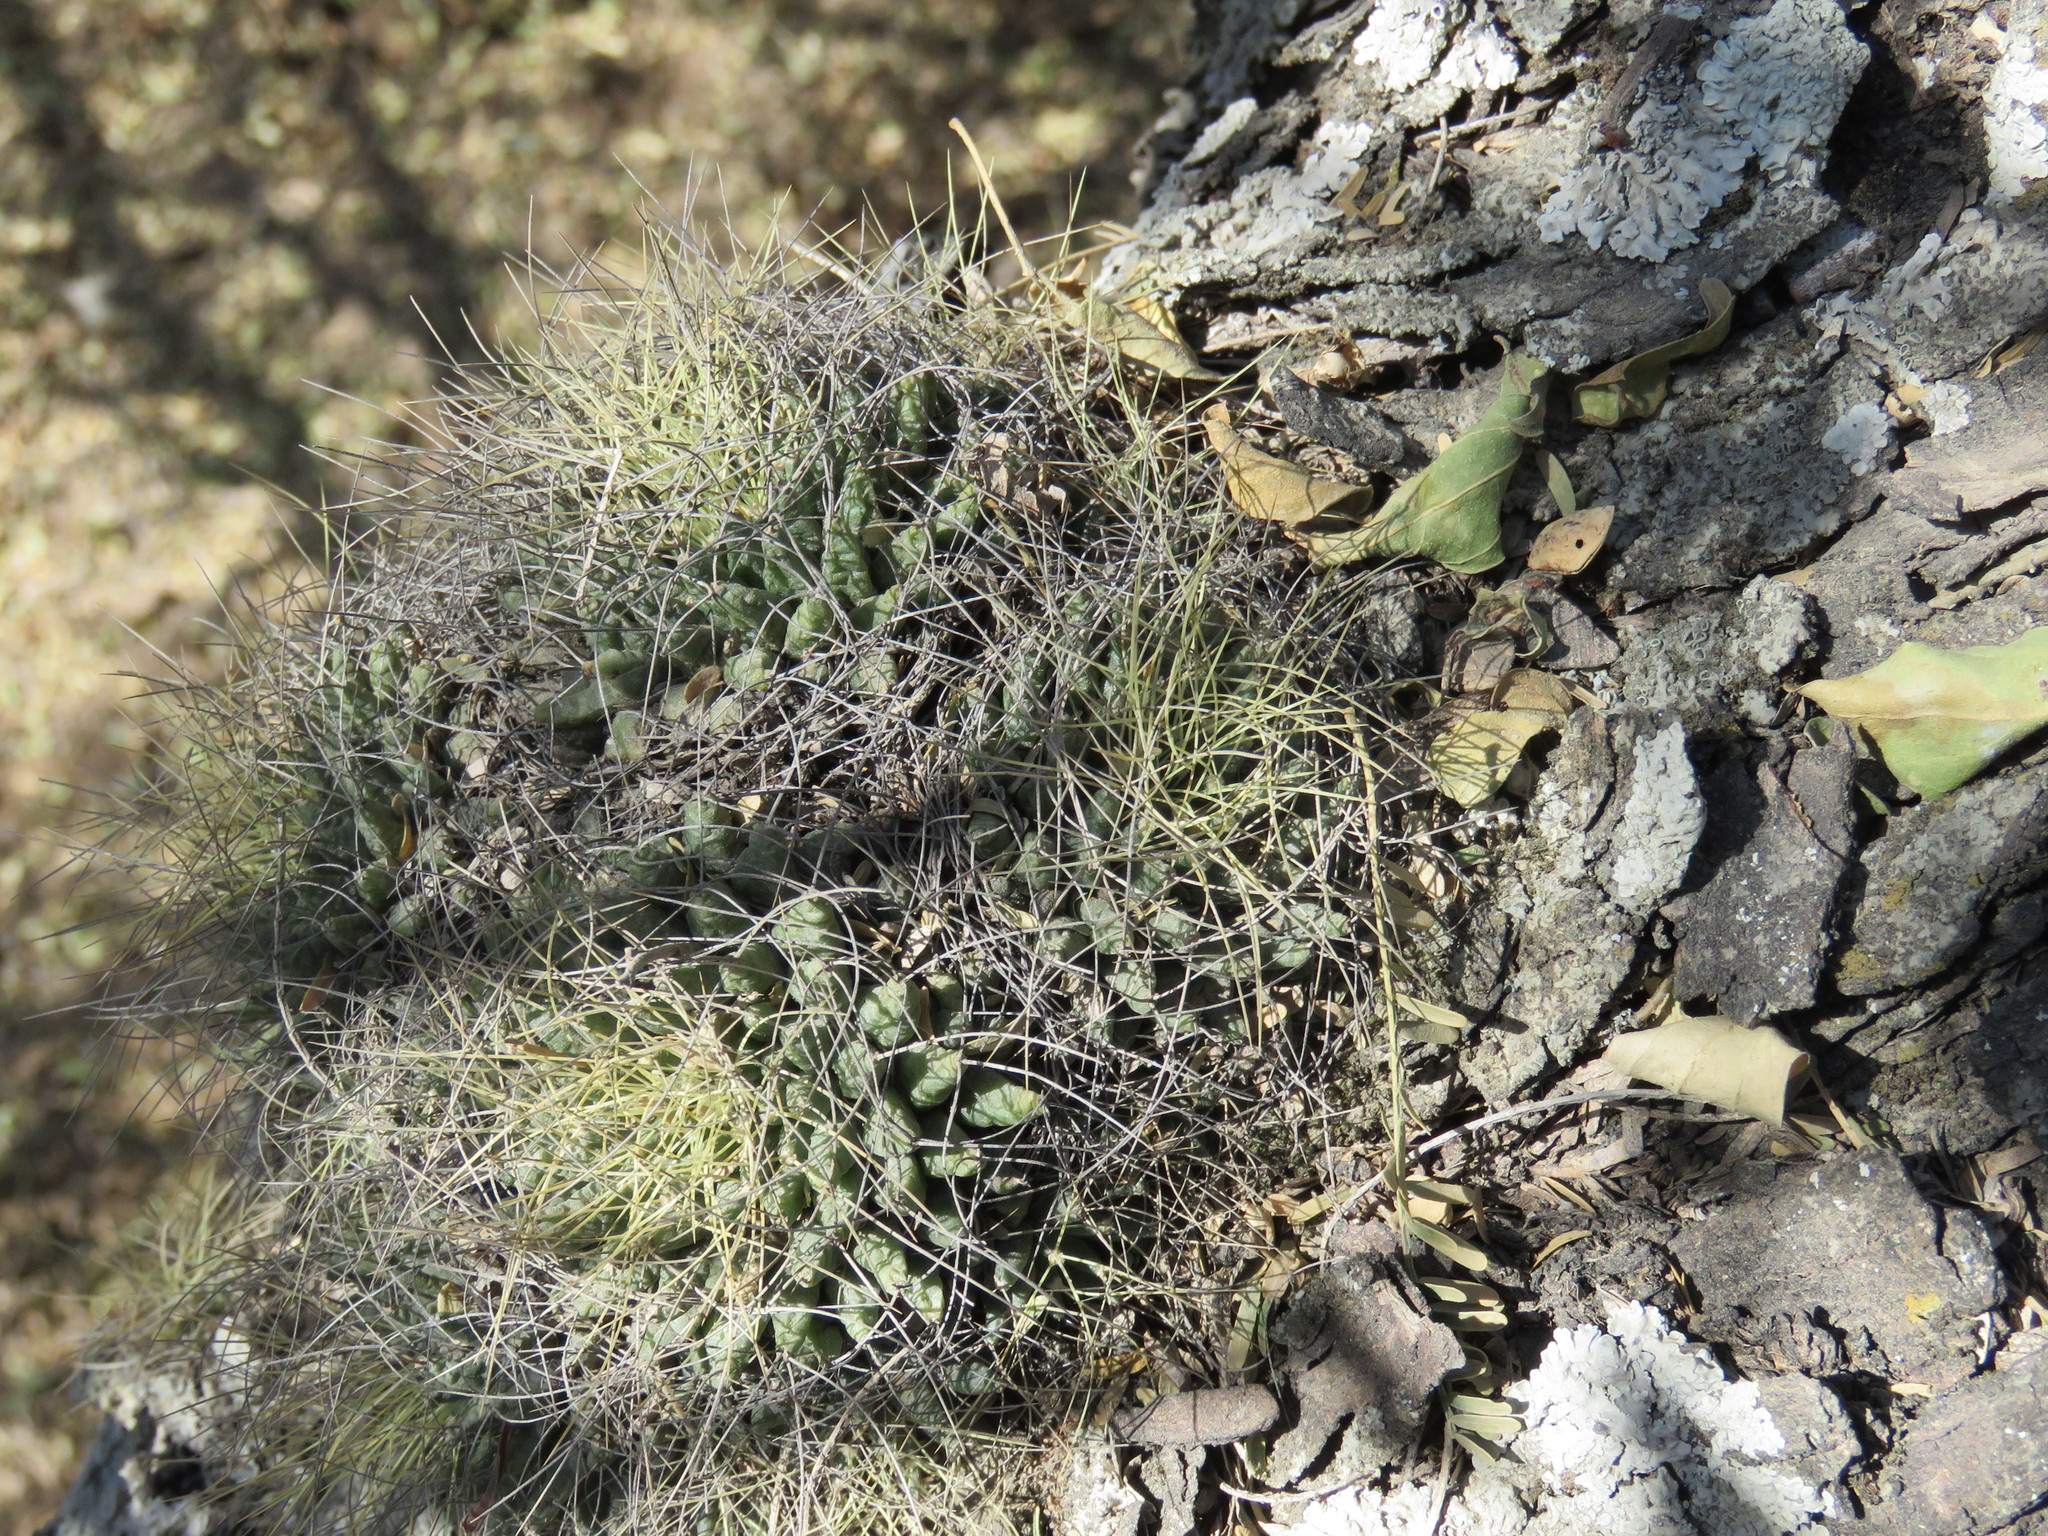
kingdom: Plantae
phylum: Tracheophyta
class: Magnoliopsida
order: Caryophyllales
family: Cactaceae
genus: Mammillaria
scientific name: Mammillaria decipiens
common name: Bird's-nest pincushion
